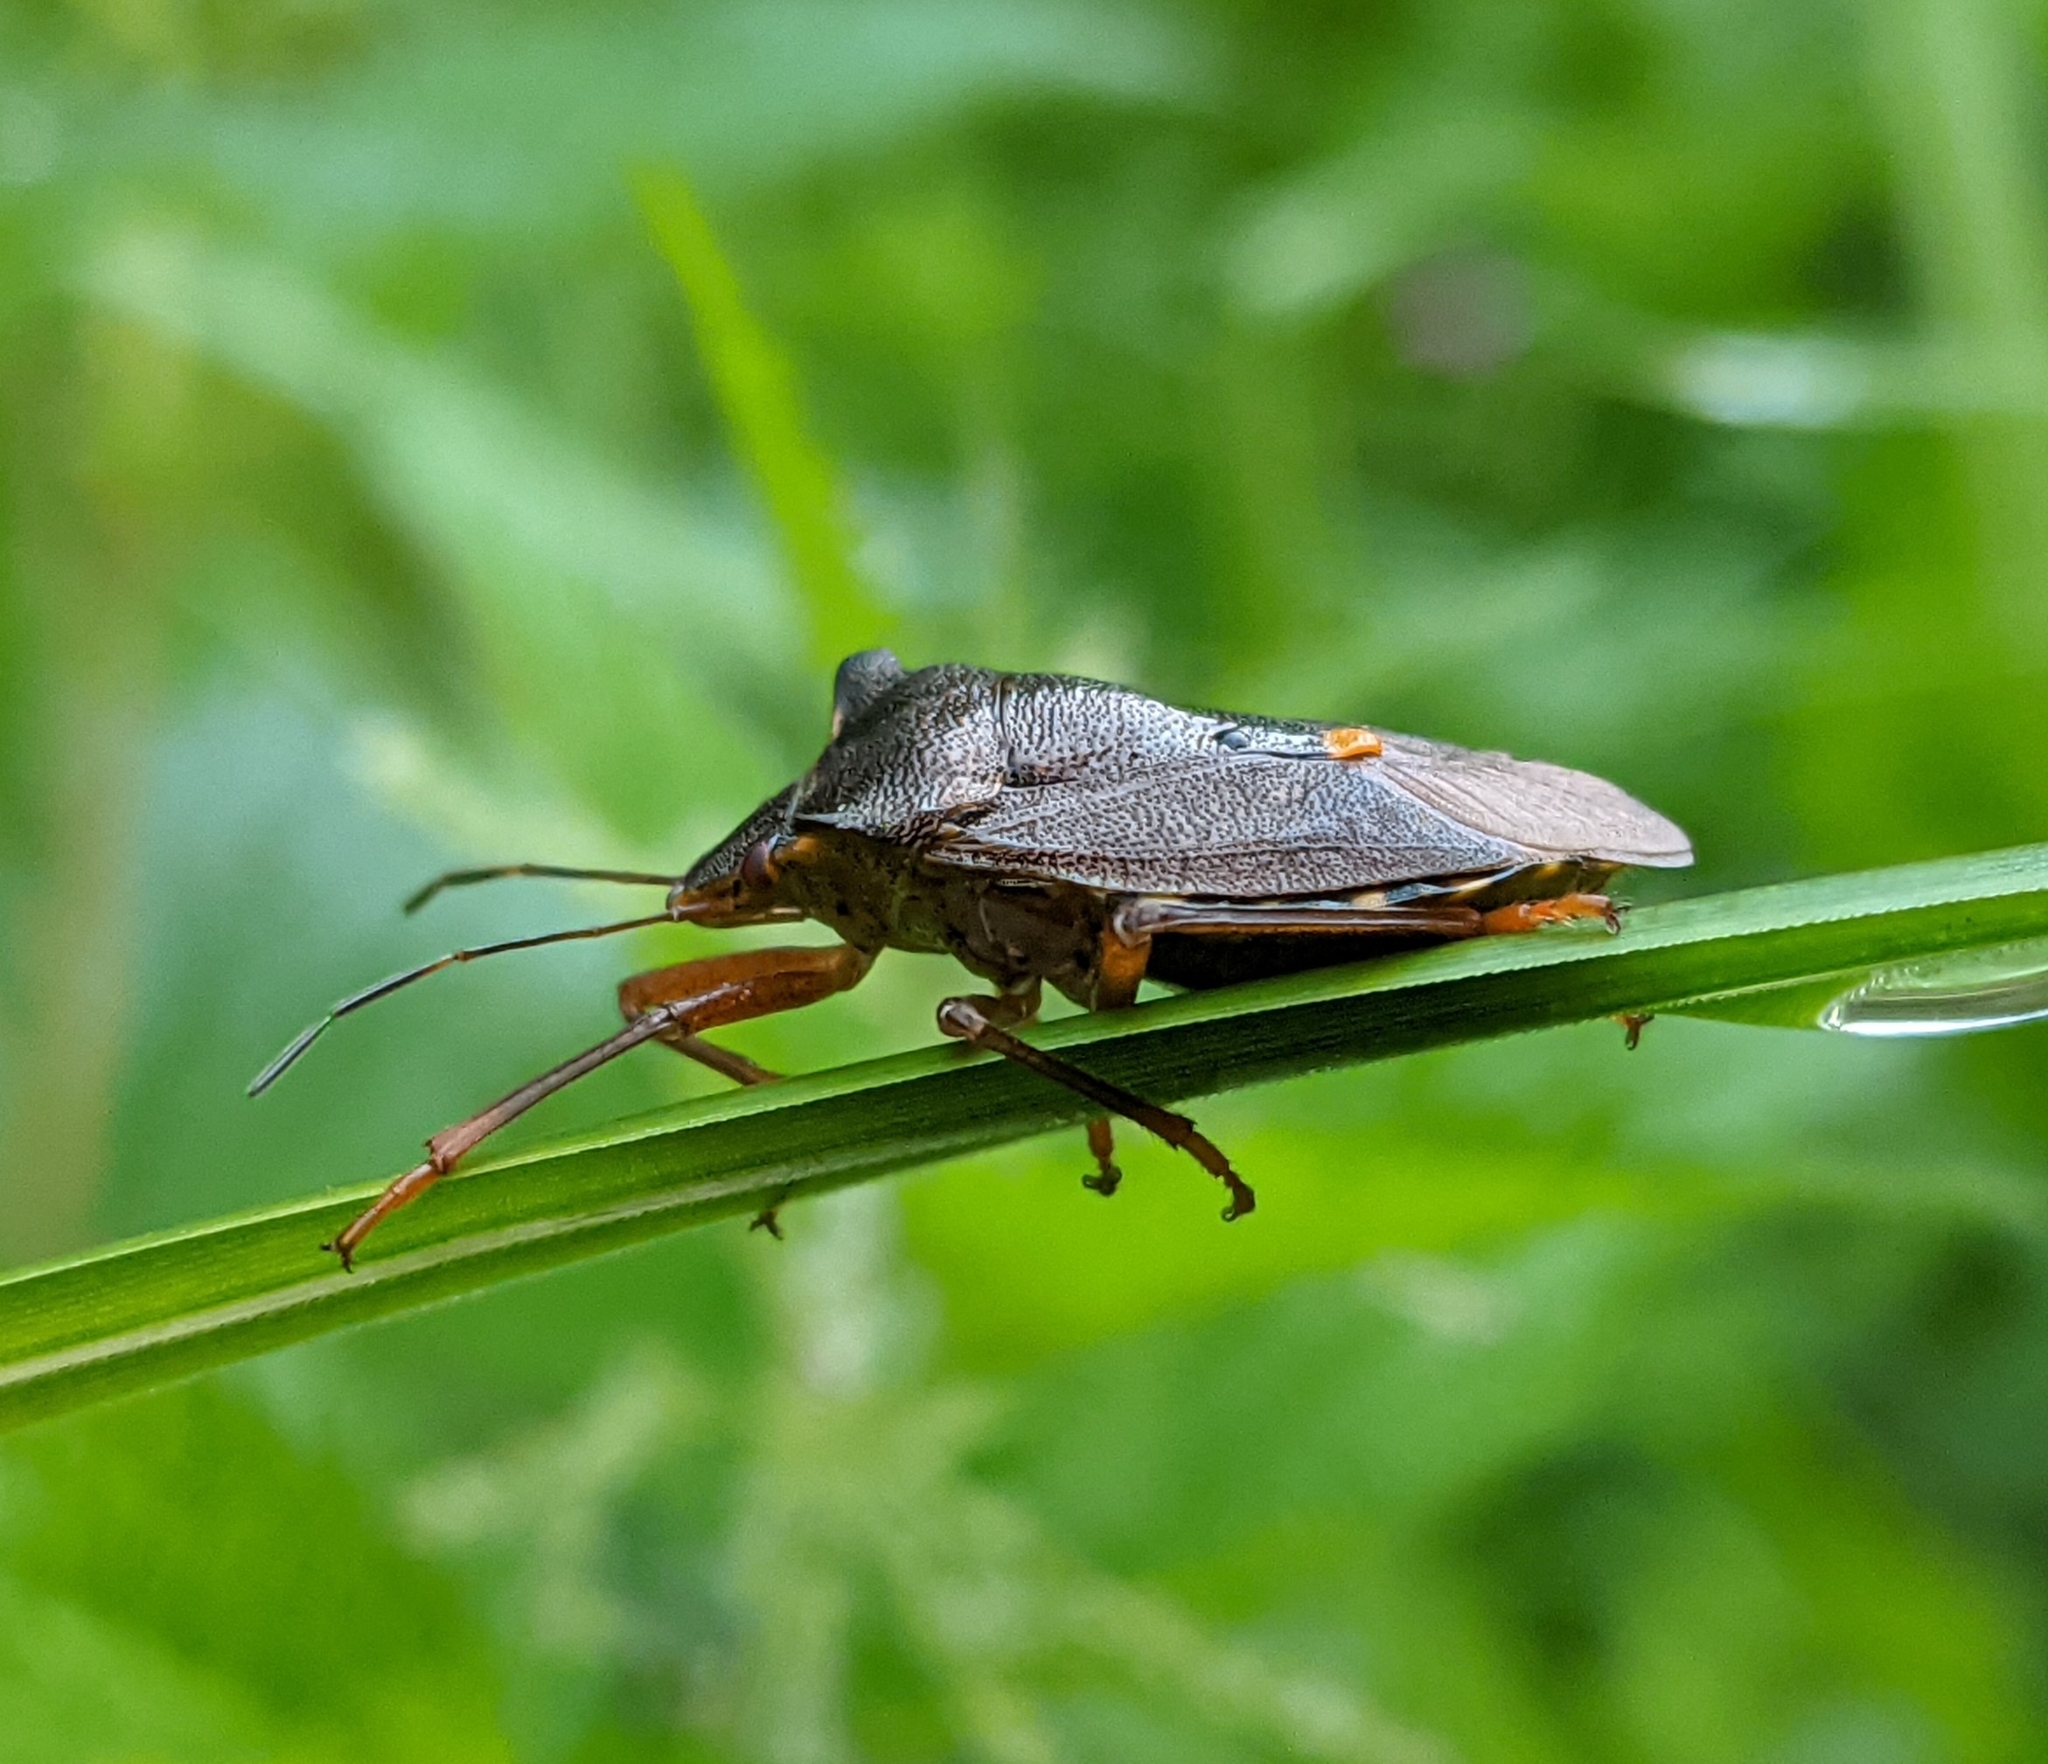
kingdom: Animalia
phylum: Arthropoda
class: Insecta
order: Hemiptera
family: Pentatomidae
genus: Pentatoma
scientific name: Pentatoma rufipes
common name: Forest bug
